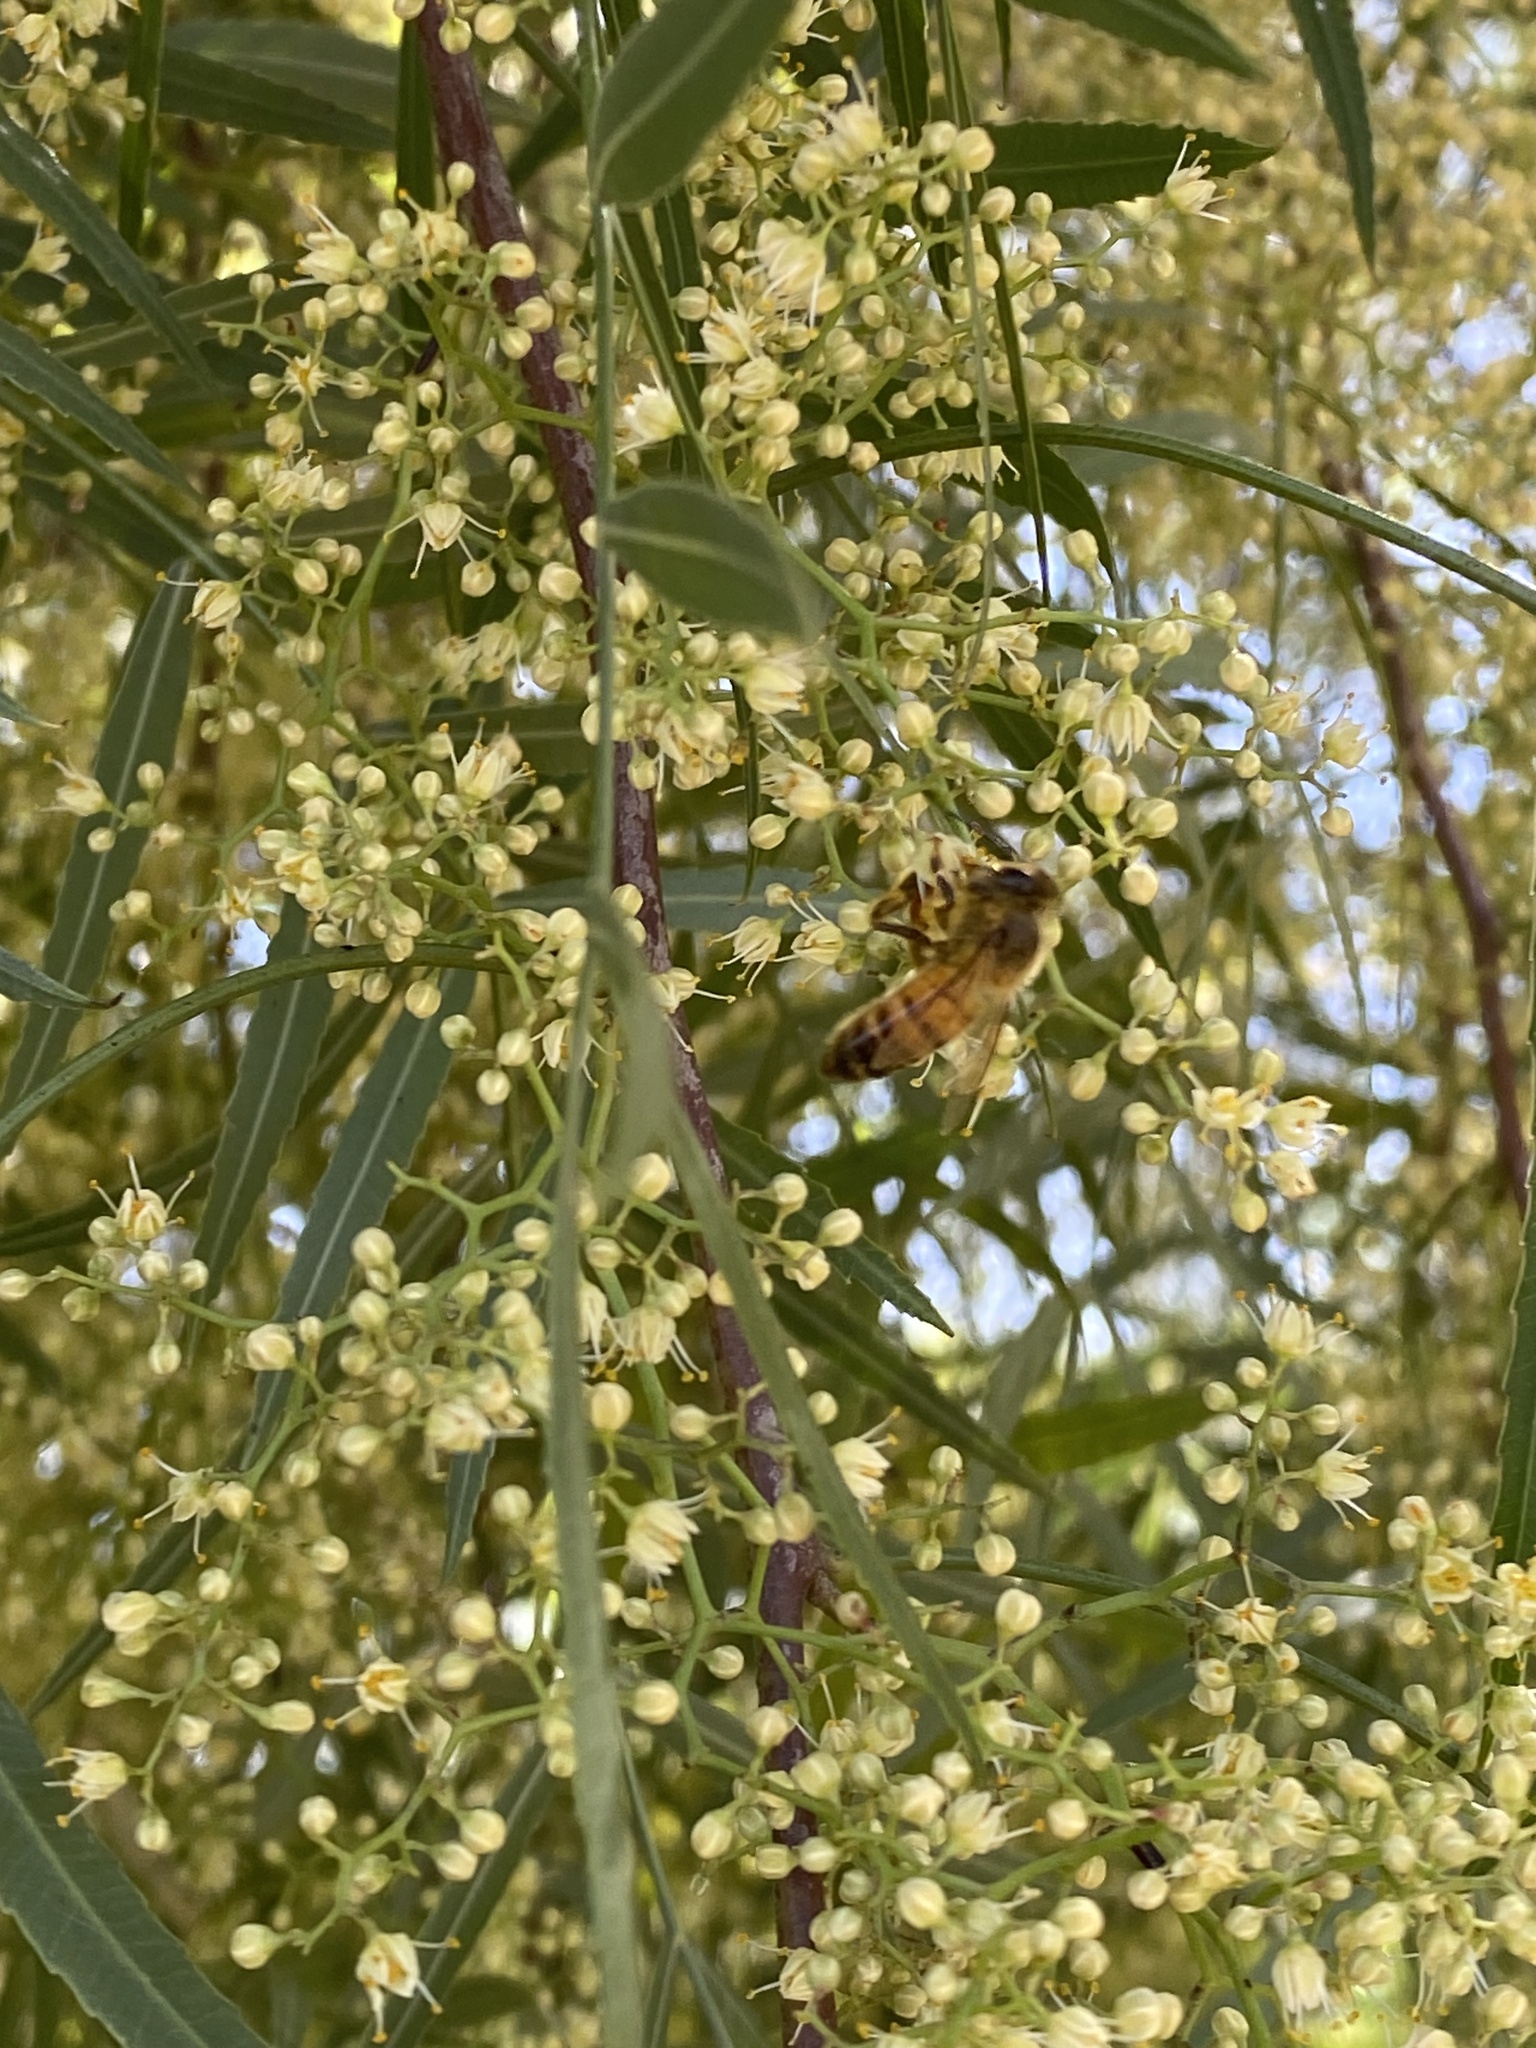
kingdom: Animalia
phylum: Arthropoda
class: Insecta
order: Hymenoptera
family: Apidae
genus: Apis
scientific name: Apis mellifera
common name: Honey bee
